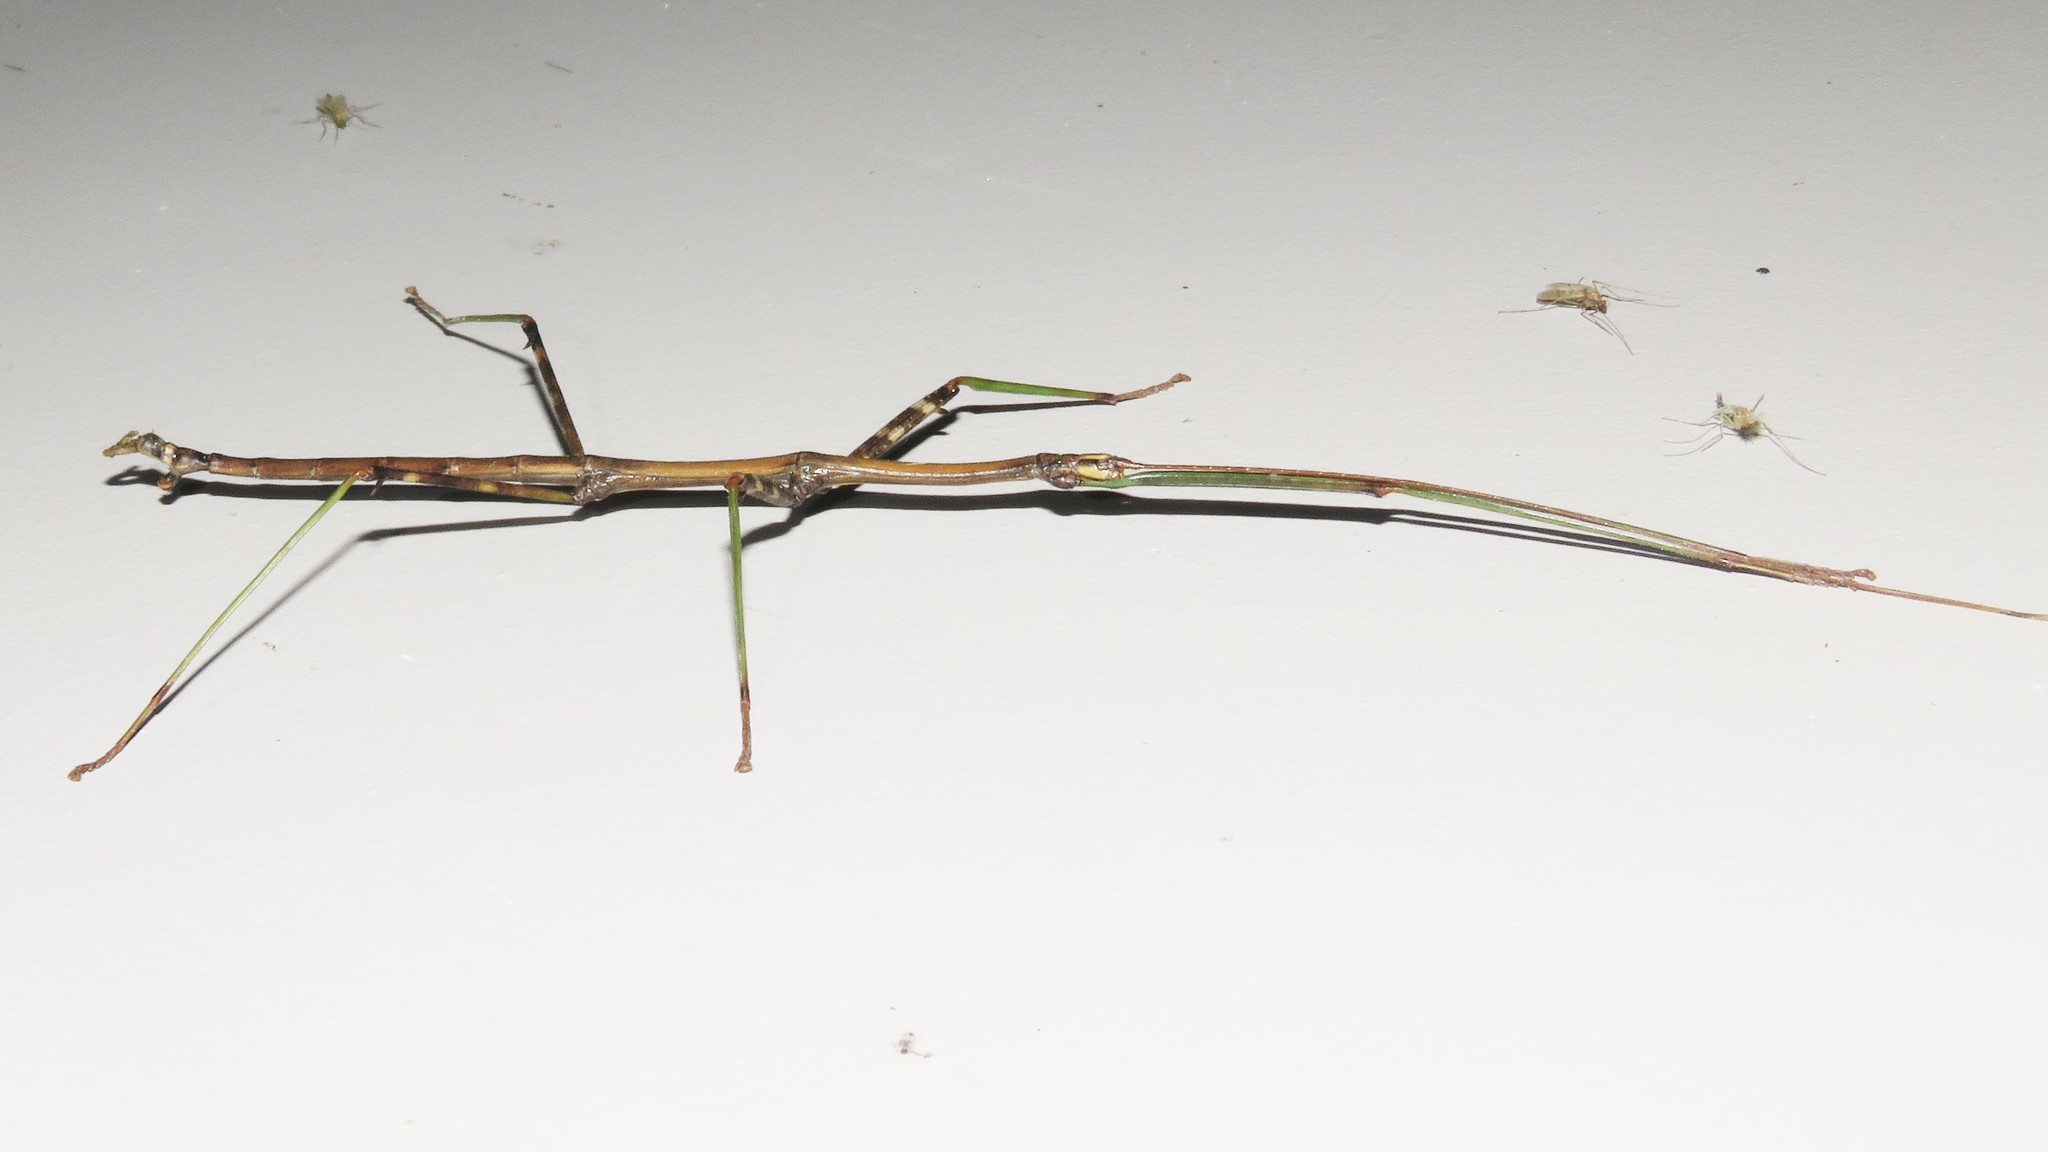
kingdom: Animalia
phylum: Arthropoda
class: Insecta
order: Phasmida
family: Diapheromeridae
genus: Diapheromera
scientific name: Diapheromera femorata
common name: Common american walkingstick
